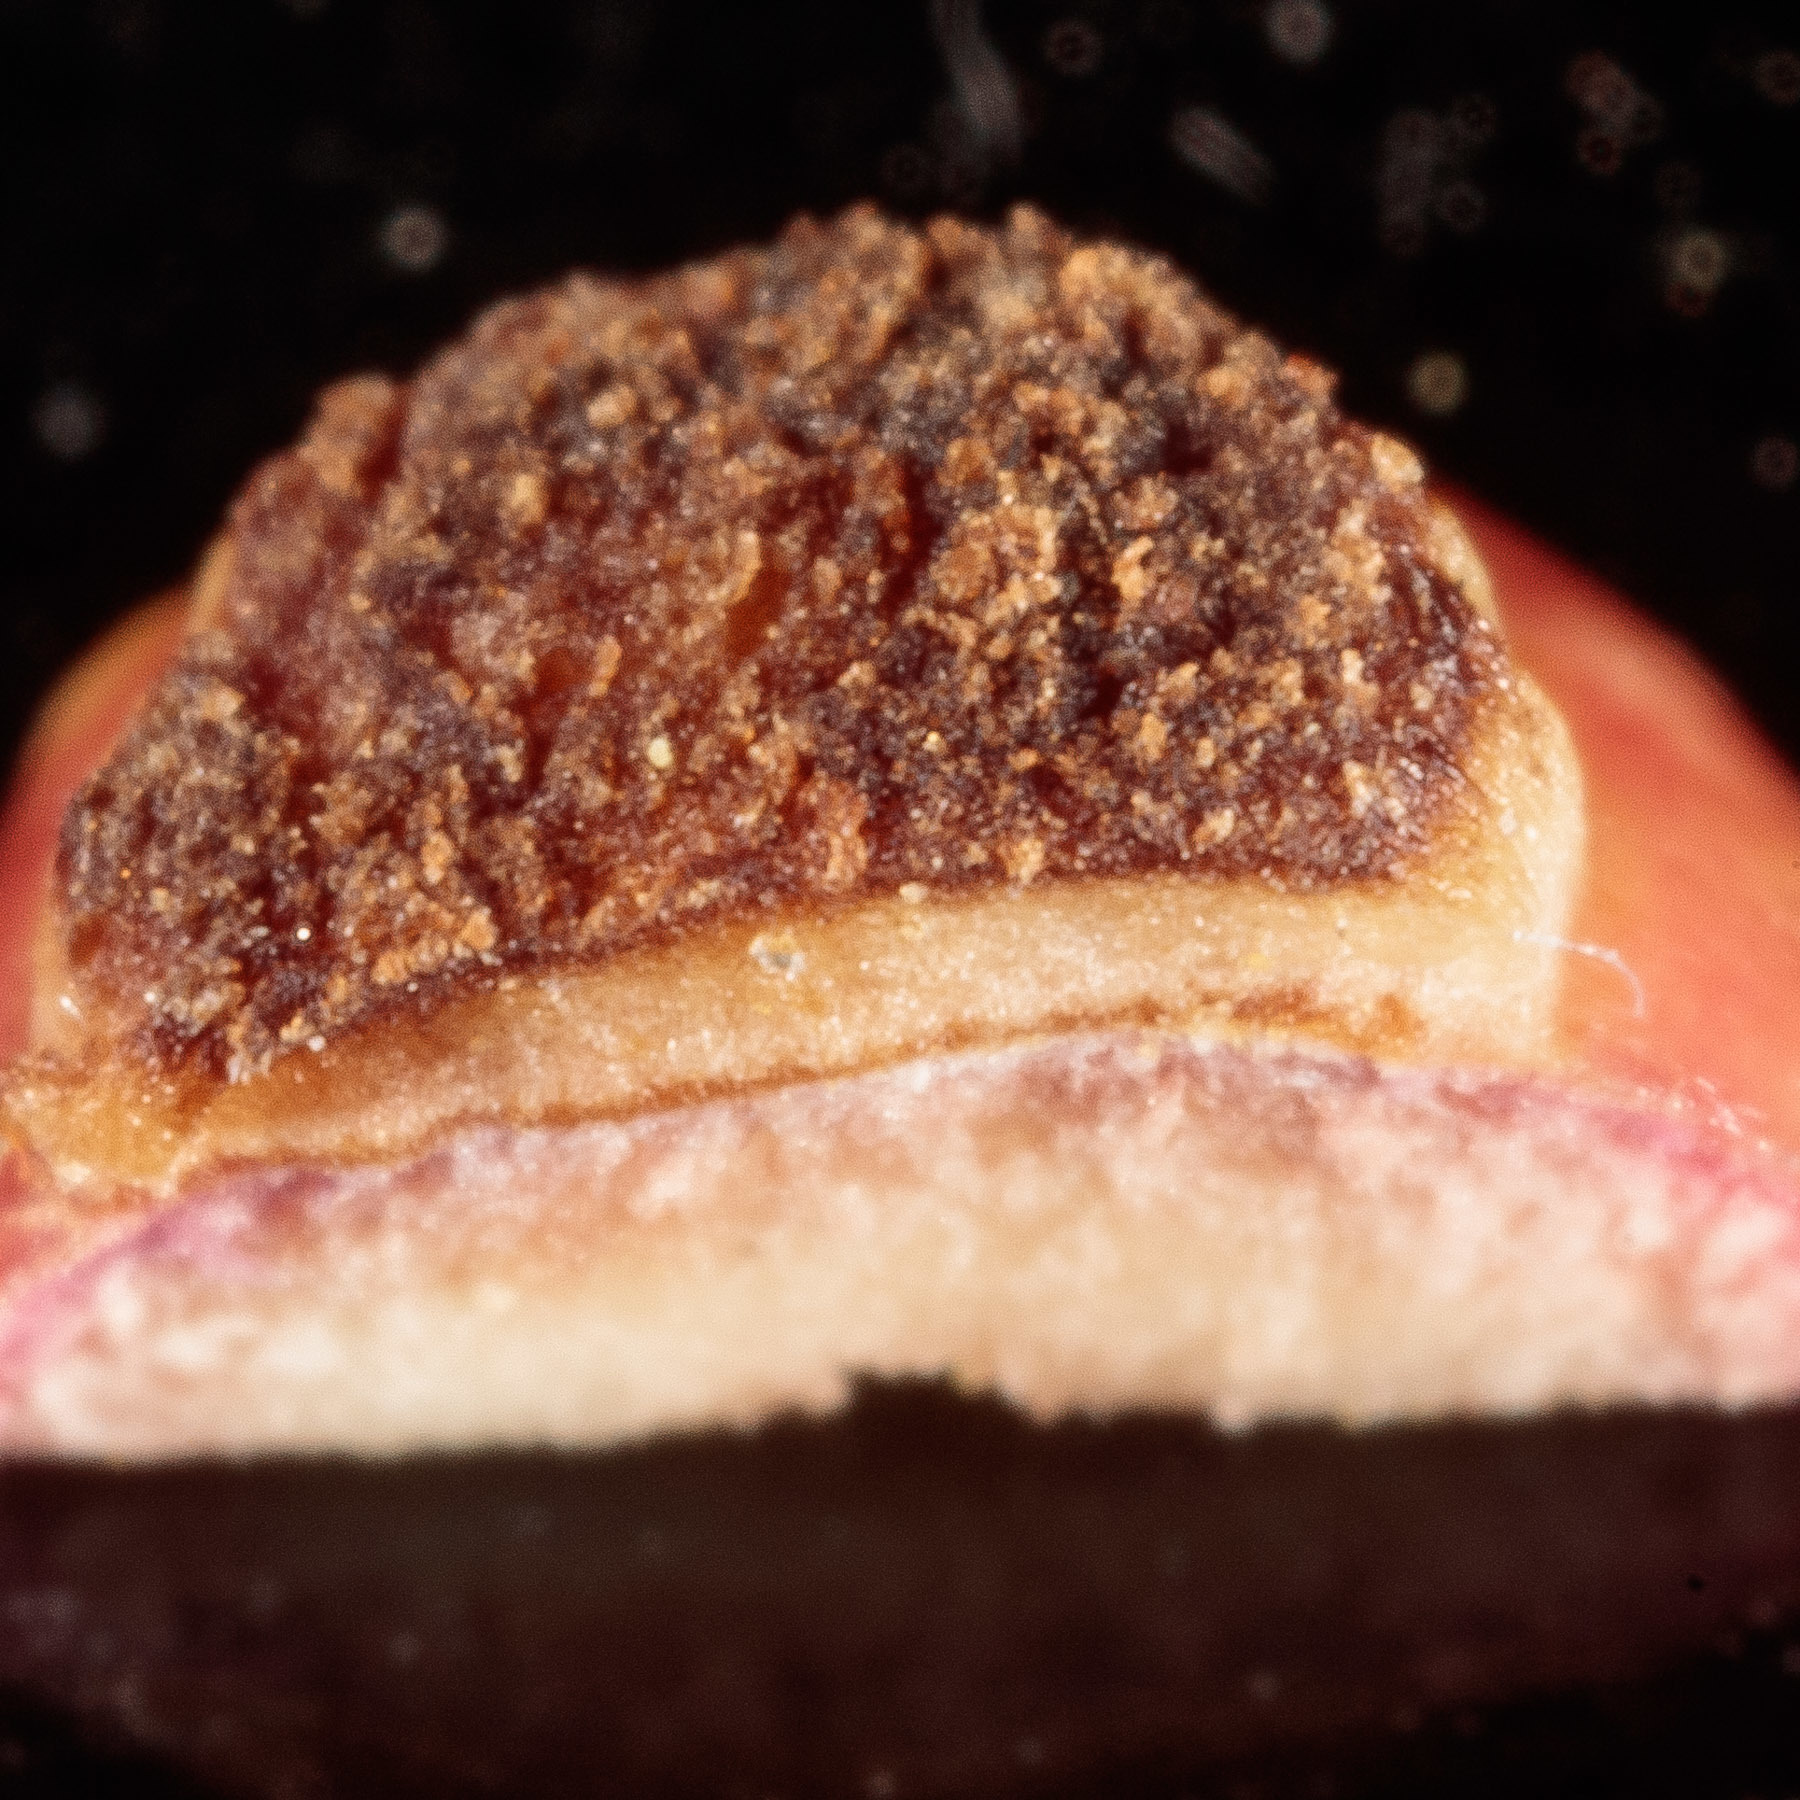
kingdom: Animalia
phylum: Arthropoda
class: Insecta
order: Hymenoptera
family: Cynipidae
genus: Kokkocynips
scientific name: Kokkocynips rileyi
